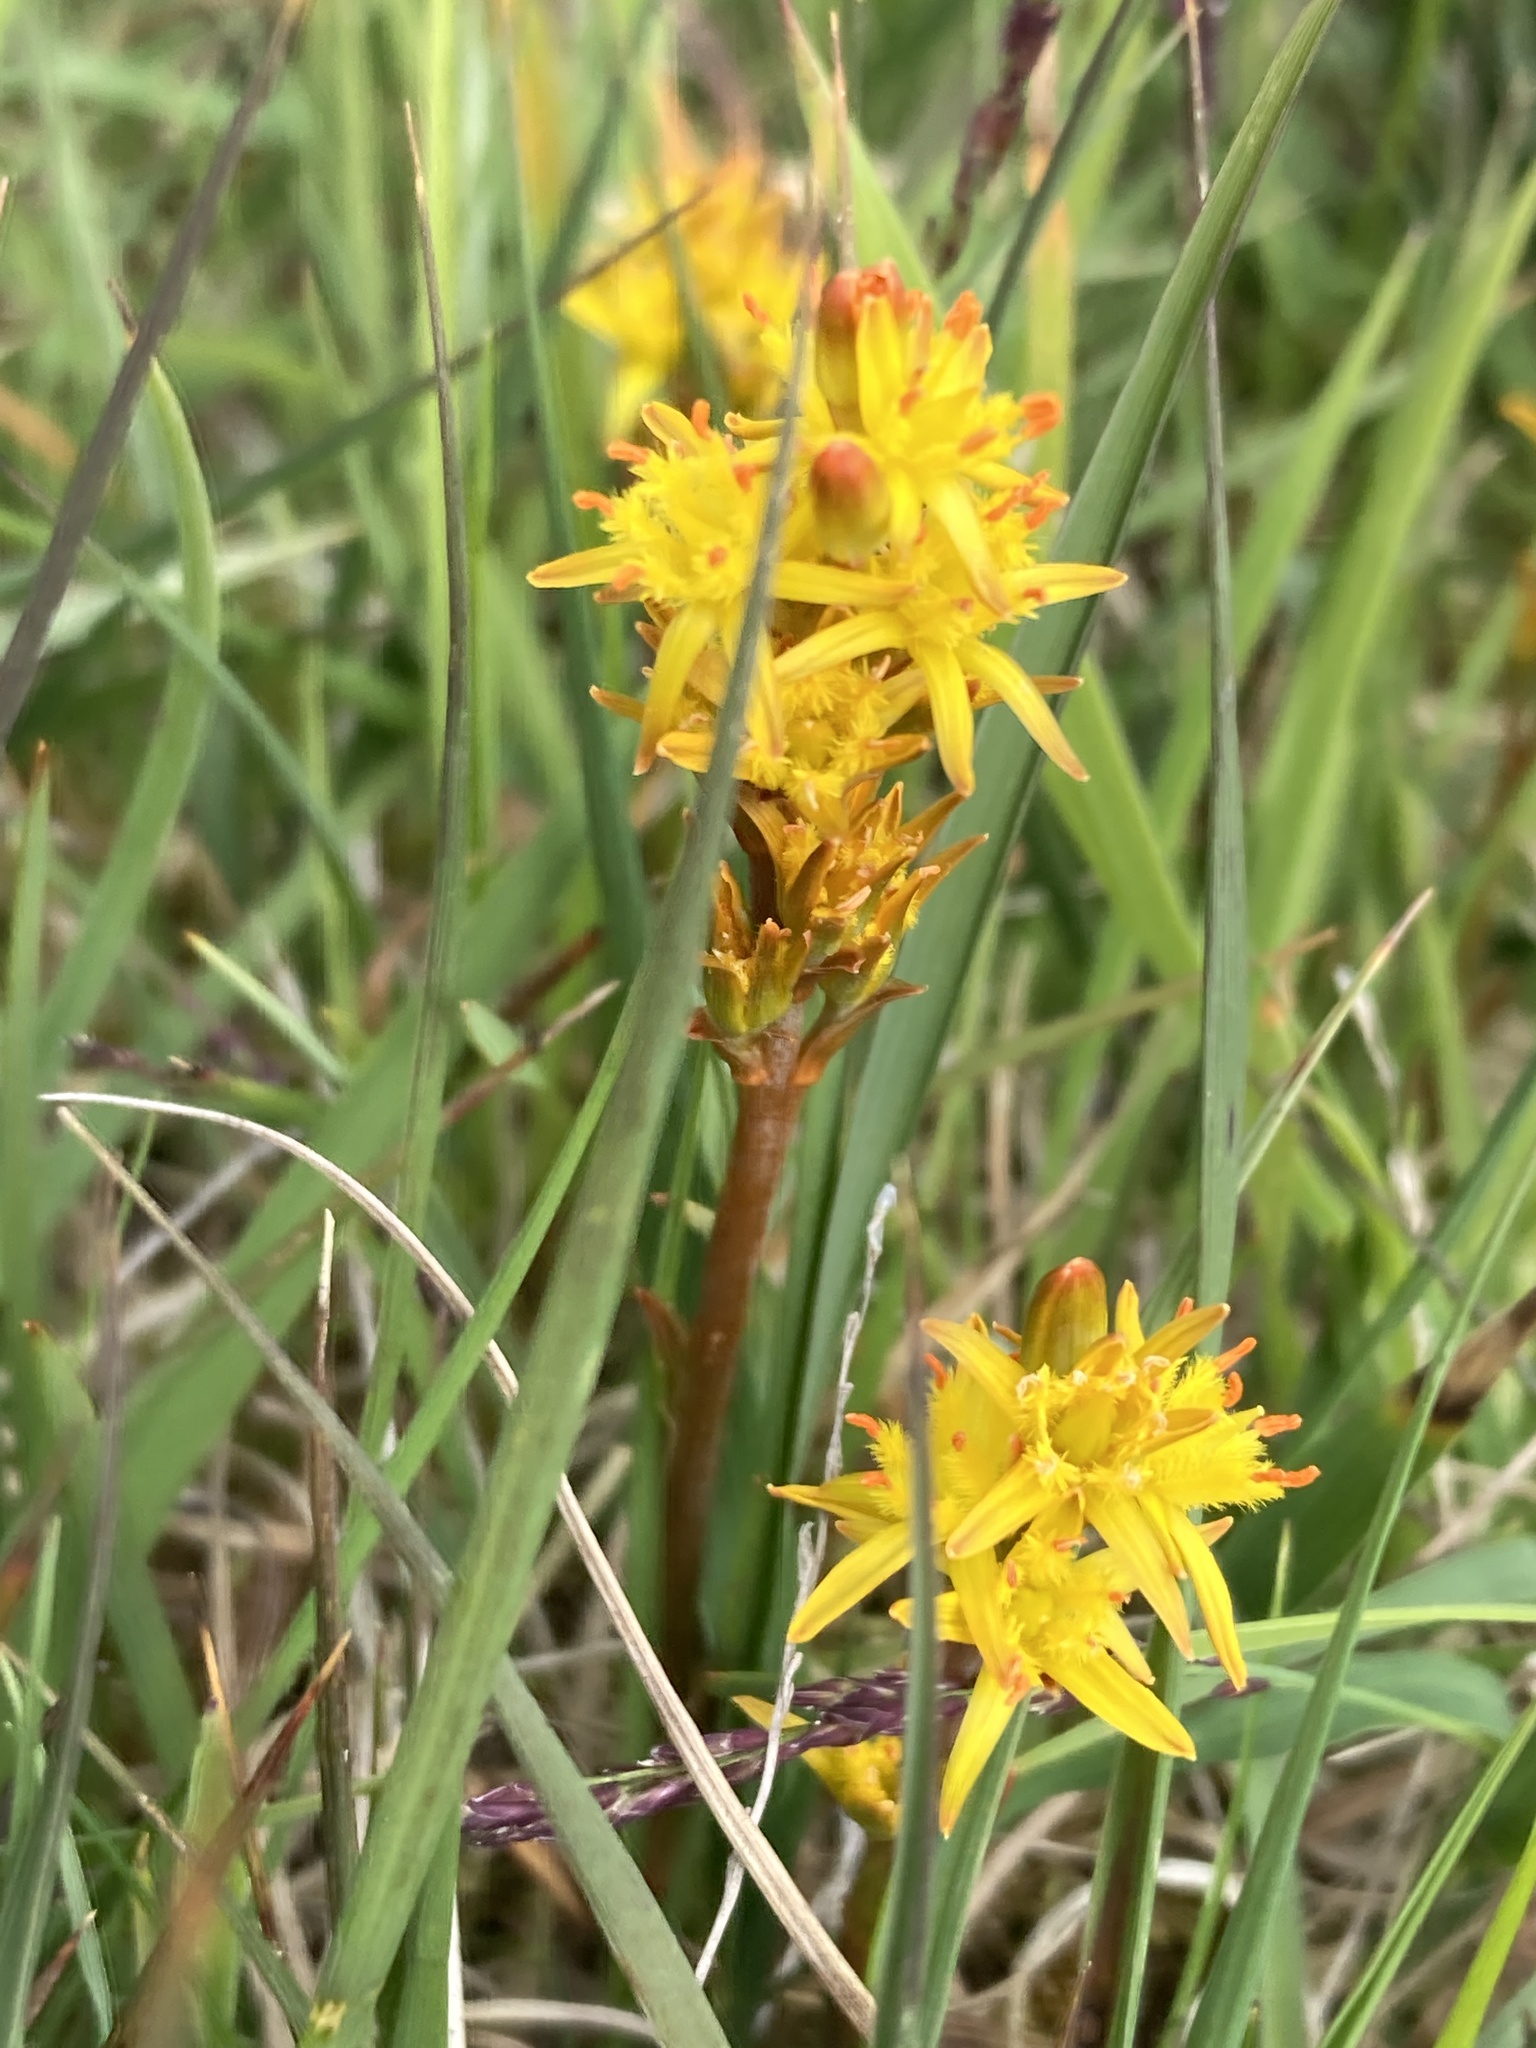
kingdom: Plantae
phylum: Tracheophyta
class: Liliopsida
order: Dioscoreales
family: Nartheciaceae
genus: Narthecium
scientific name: Narthecium ossifragum
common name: Bog asphodel
